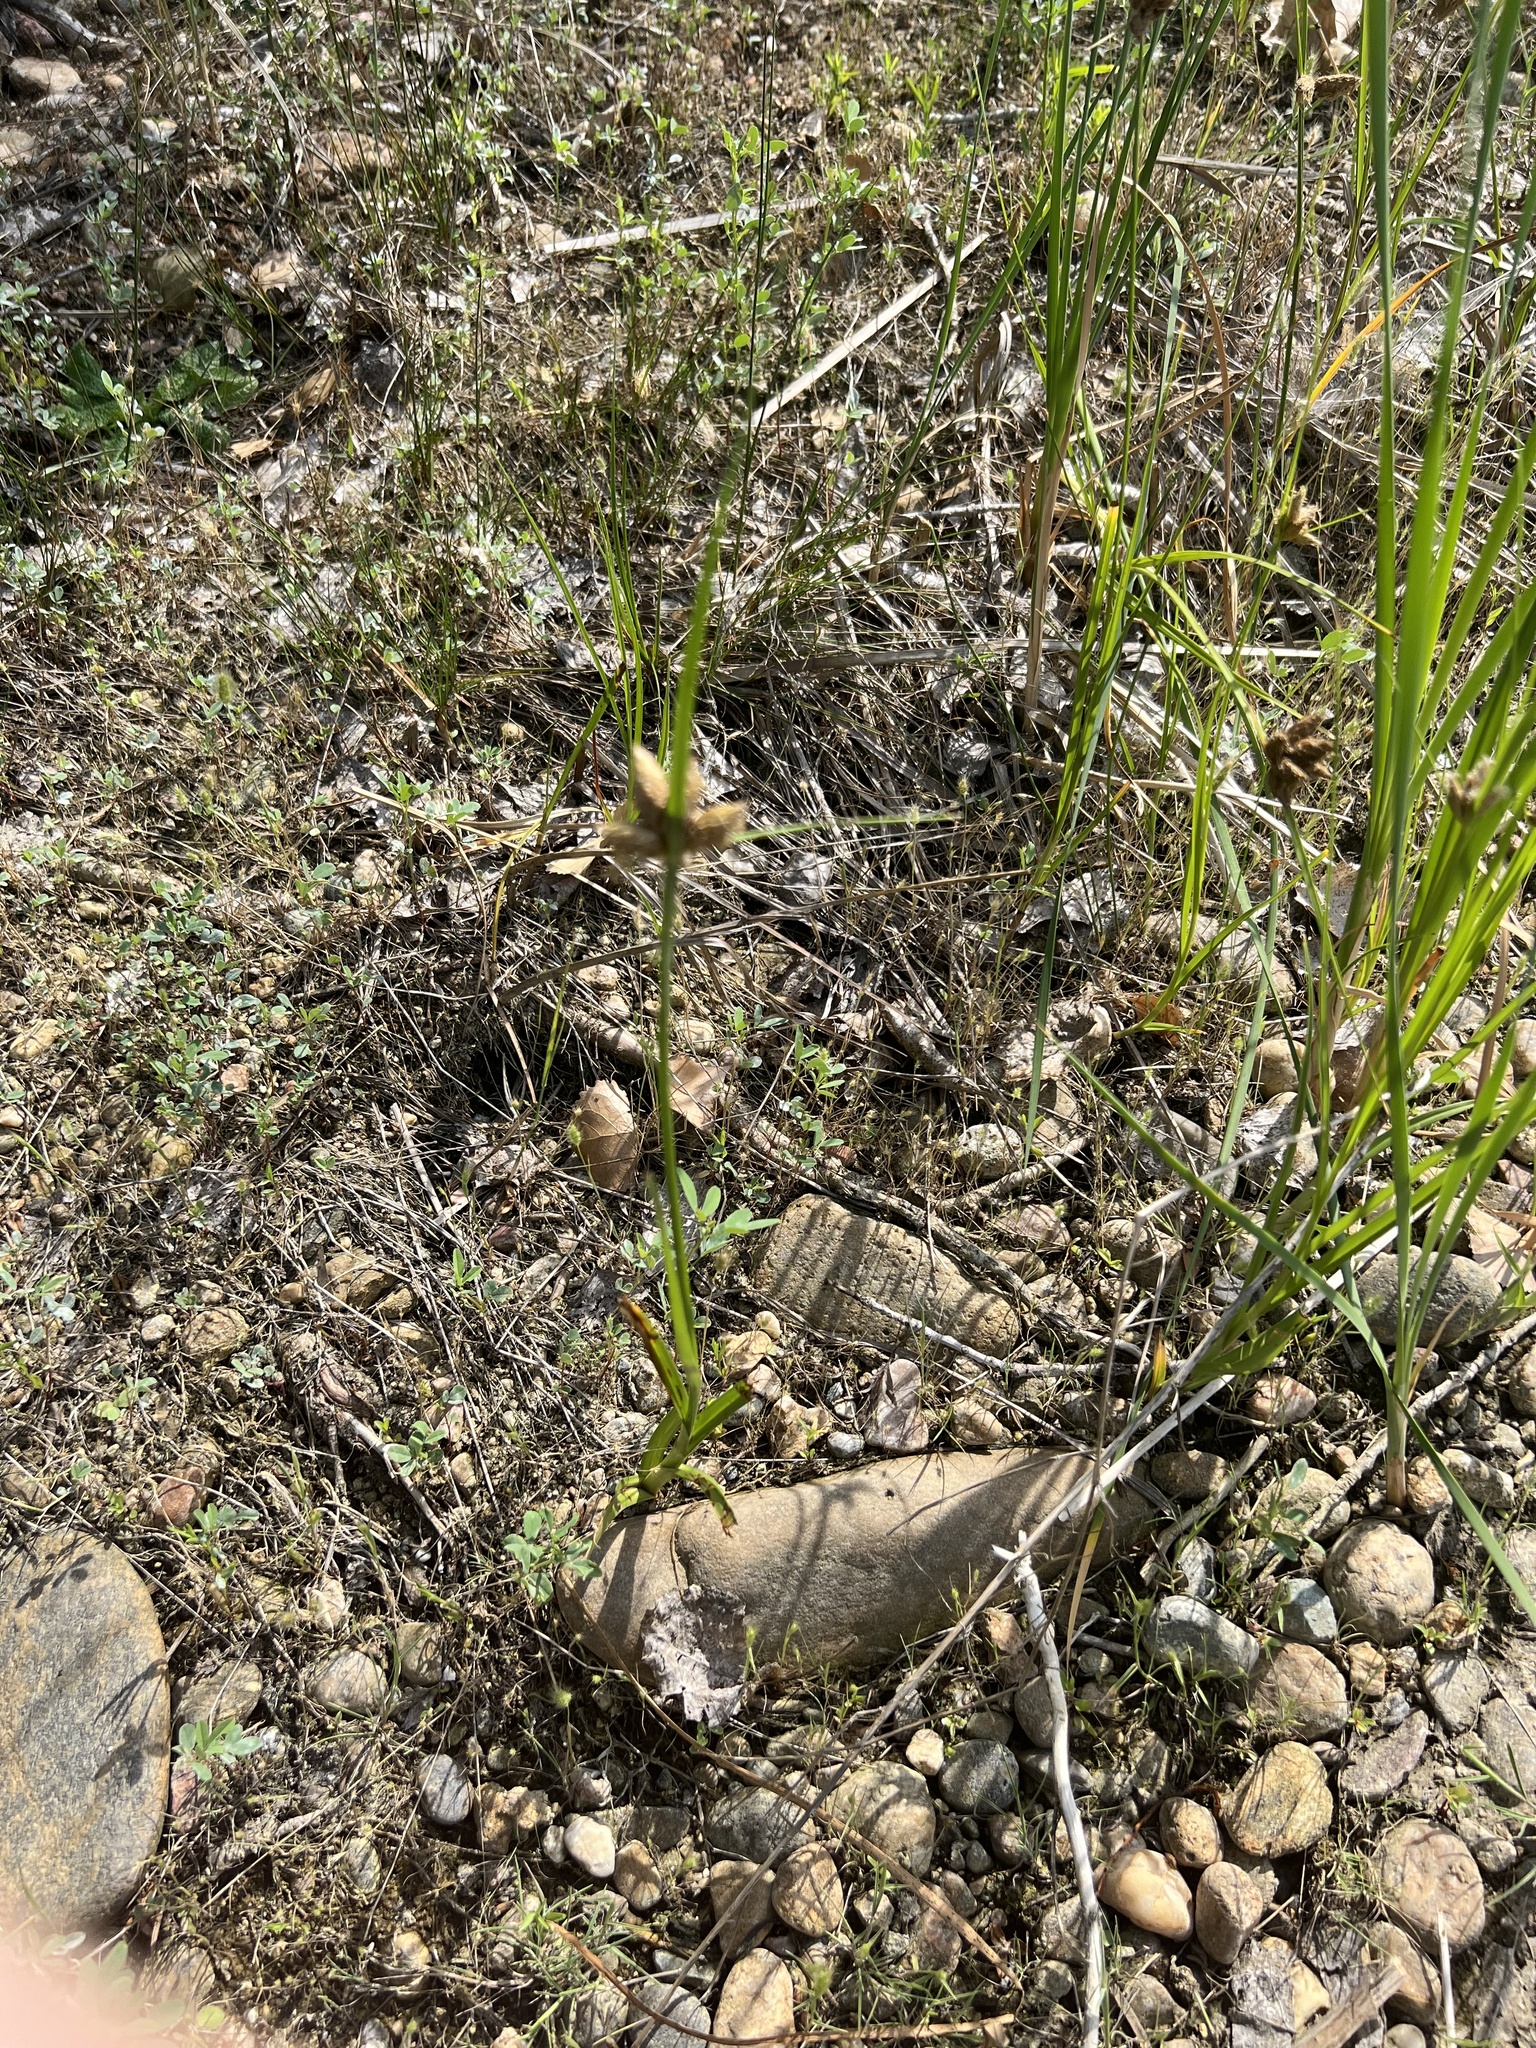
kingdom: Plantae
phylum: Tracheophyta
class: Liliopsida
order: Poales
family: Cyperaceae
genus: Bolboschoenus
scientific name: Bolboschoenus maritimus
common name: Sea club-rush
